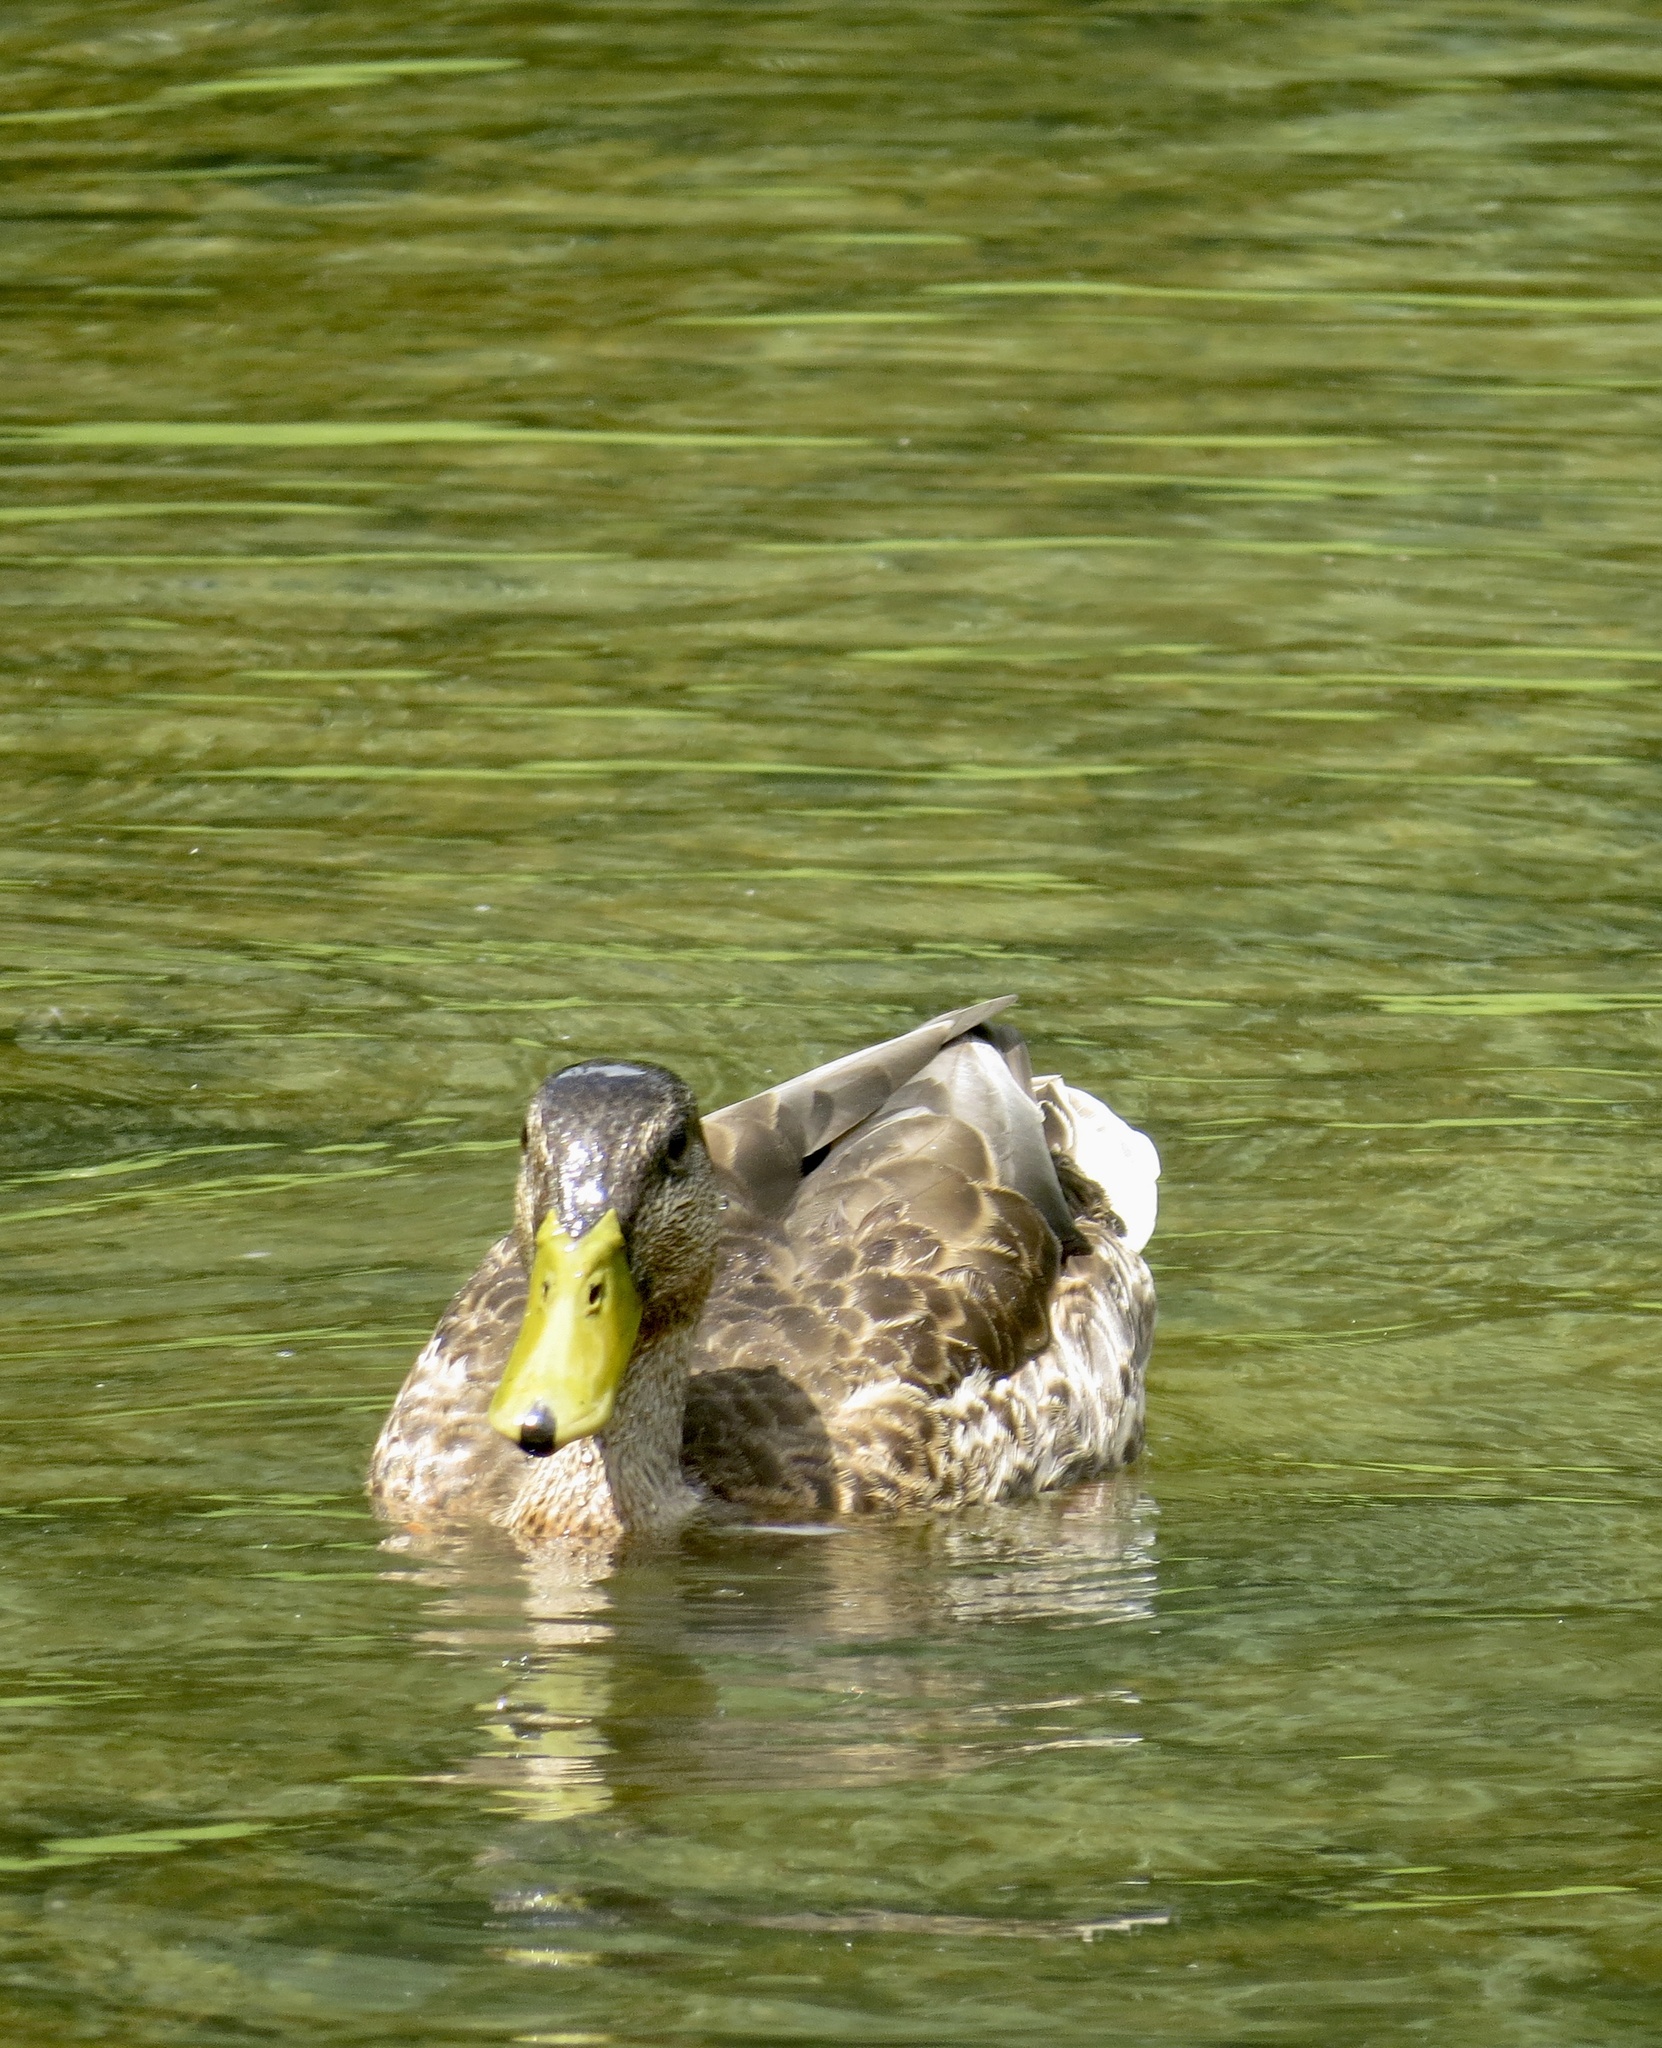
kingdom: Animalia
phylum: Chordata
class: Aves
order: Anseriformes
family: Anatidae
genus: Anas
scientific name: Anas platyrhynchos
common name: Mallard
